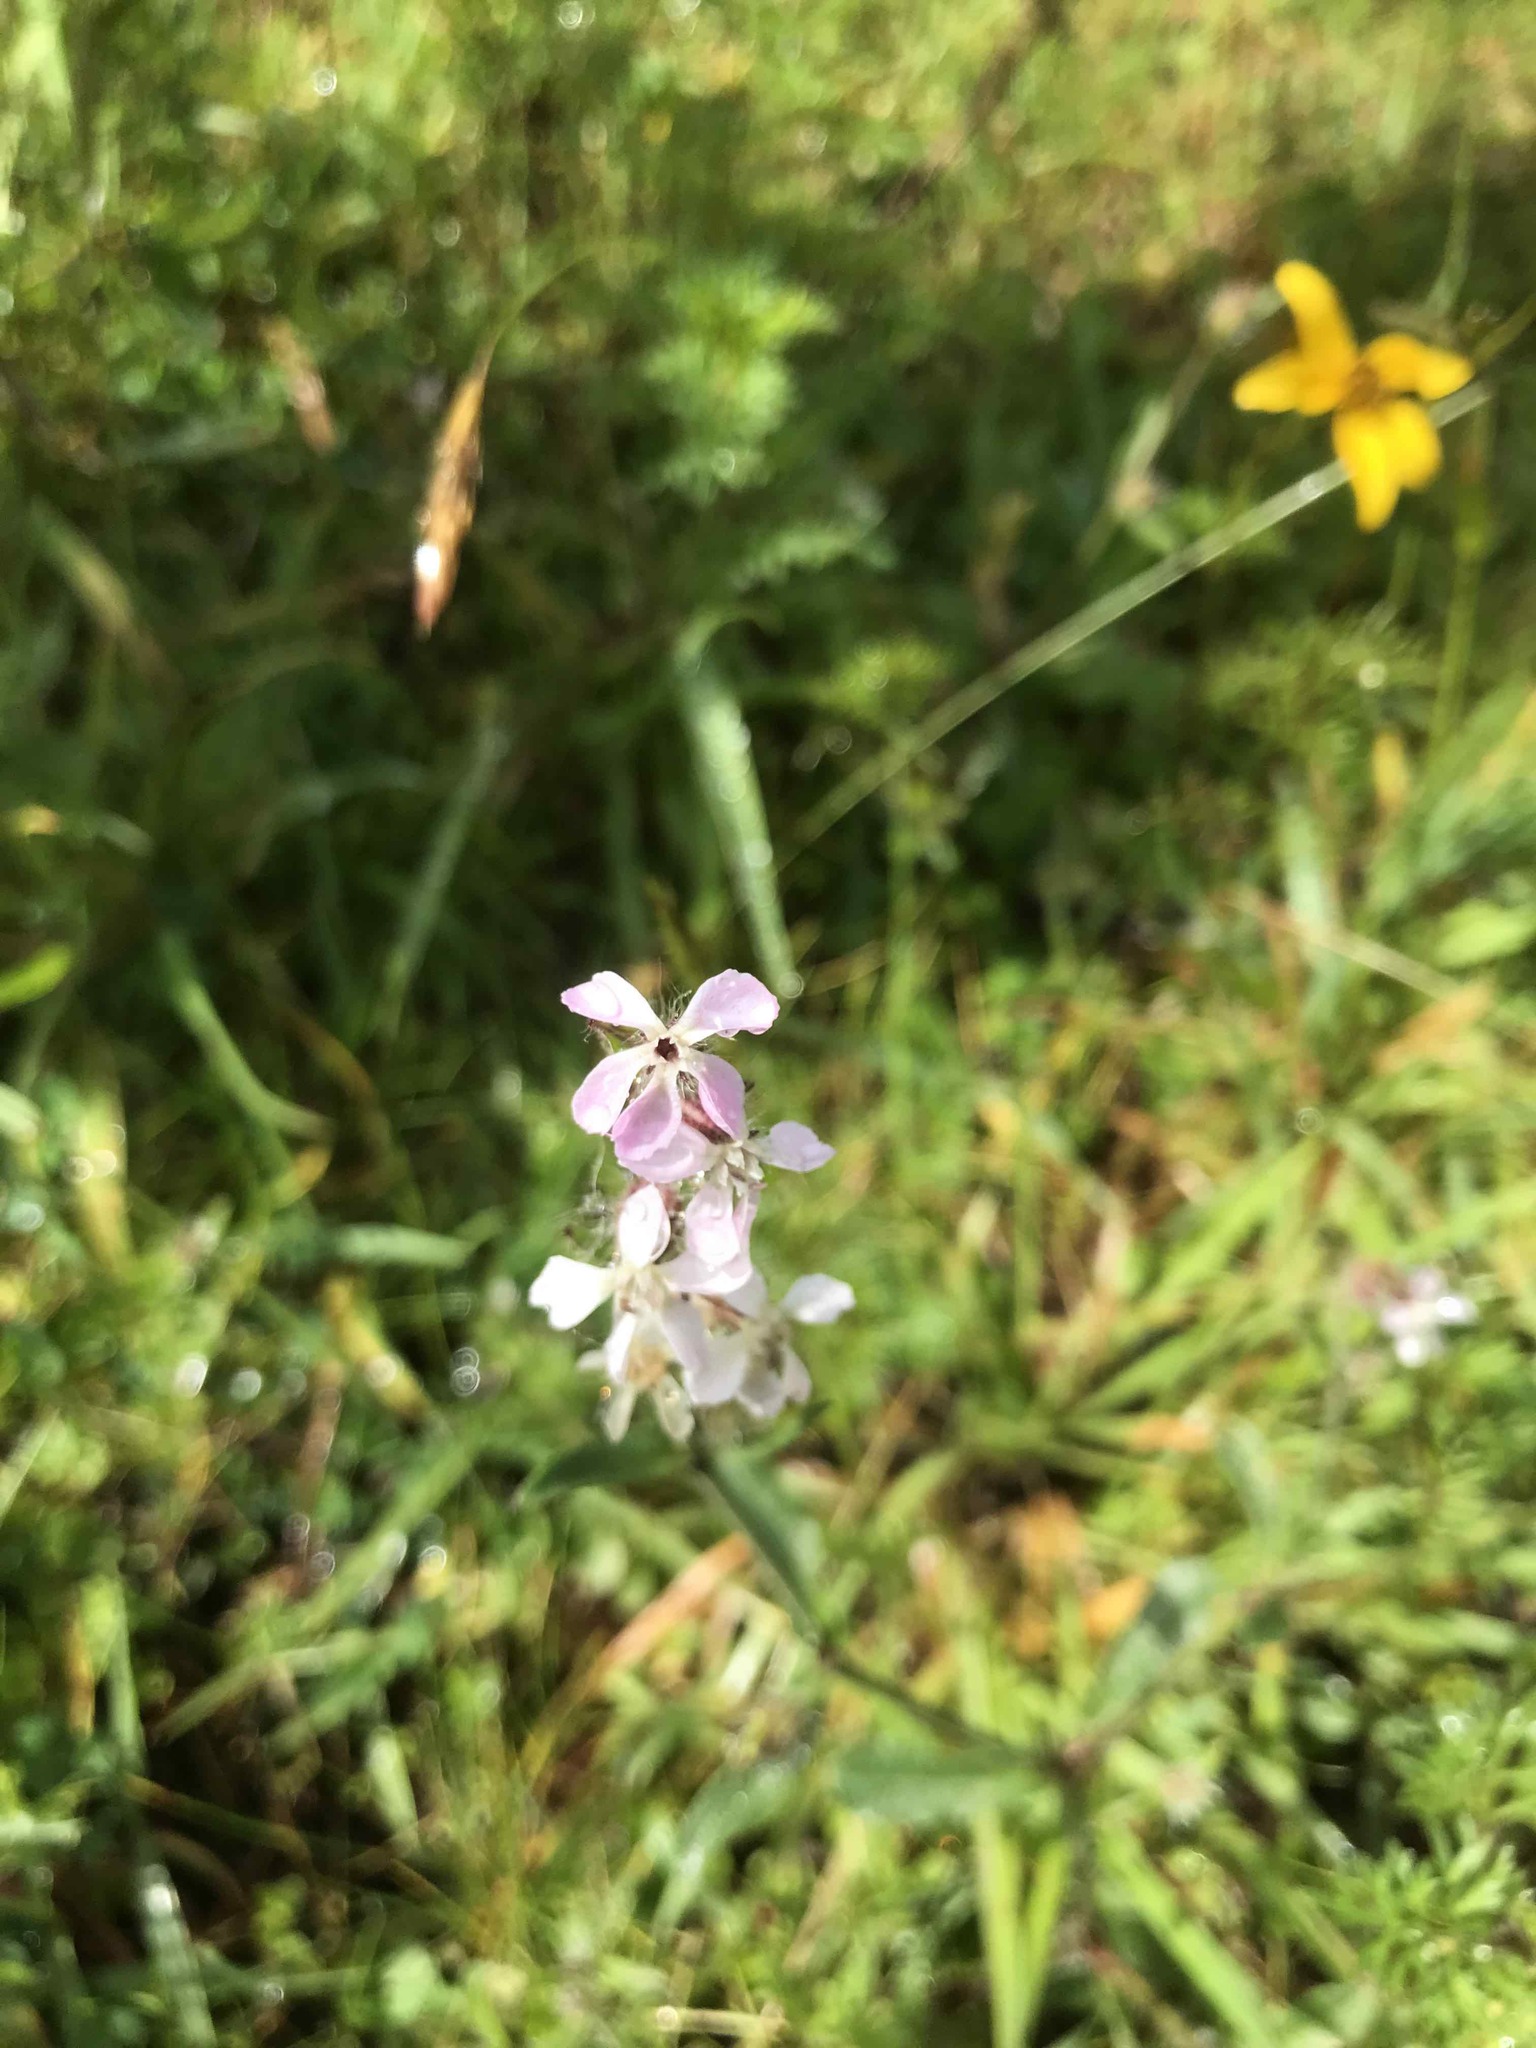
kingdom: Plantae
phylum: Tracheophyta
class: Magnoliopsida
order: Caryophyllales
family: Caryophyllaceae
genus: Silene
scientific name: Silene gallica
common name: Small-flowered catchfly
